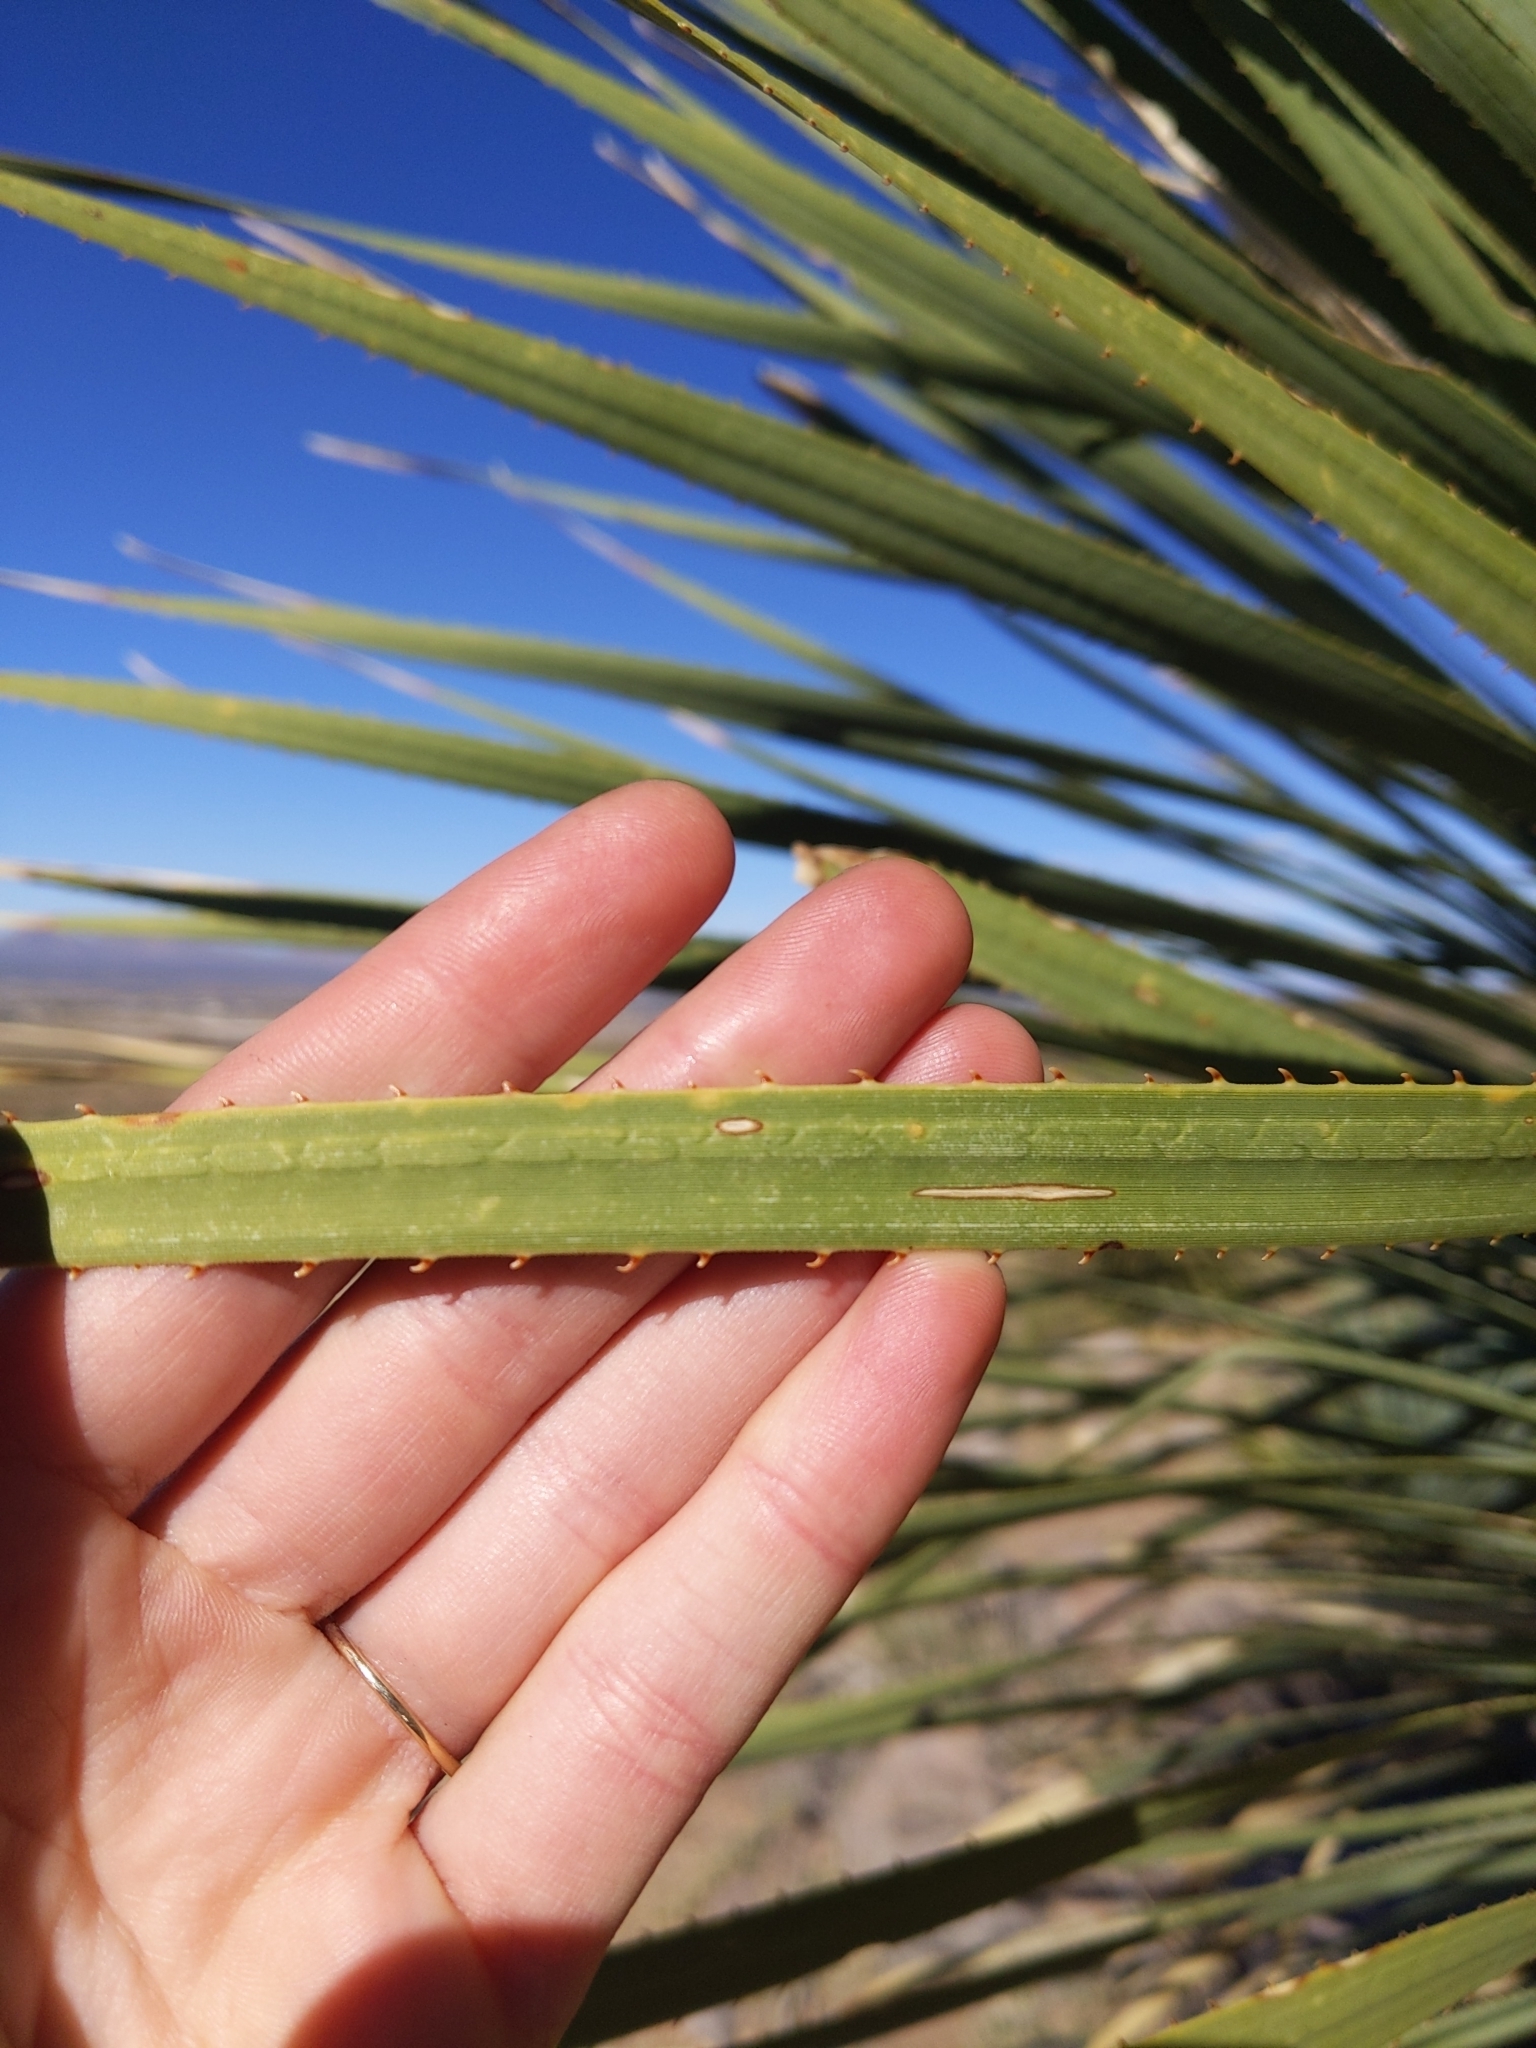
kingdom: Plantae
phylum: Tracheophyta
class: Liliopsida
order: Asparagales
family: Asparagaceae
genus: Dasylirion
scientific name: Dasylirion wheeleri
